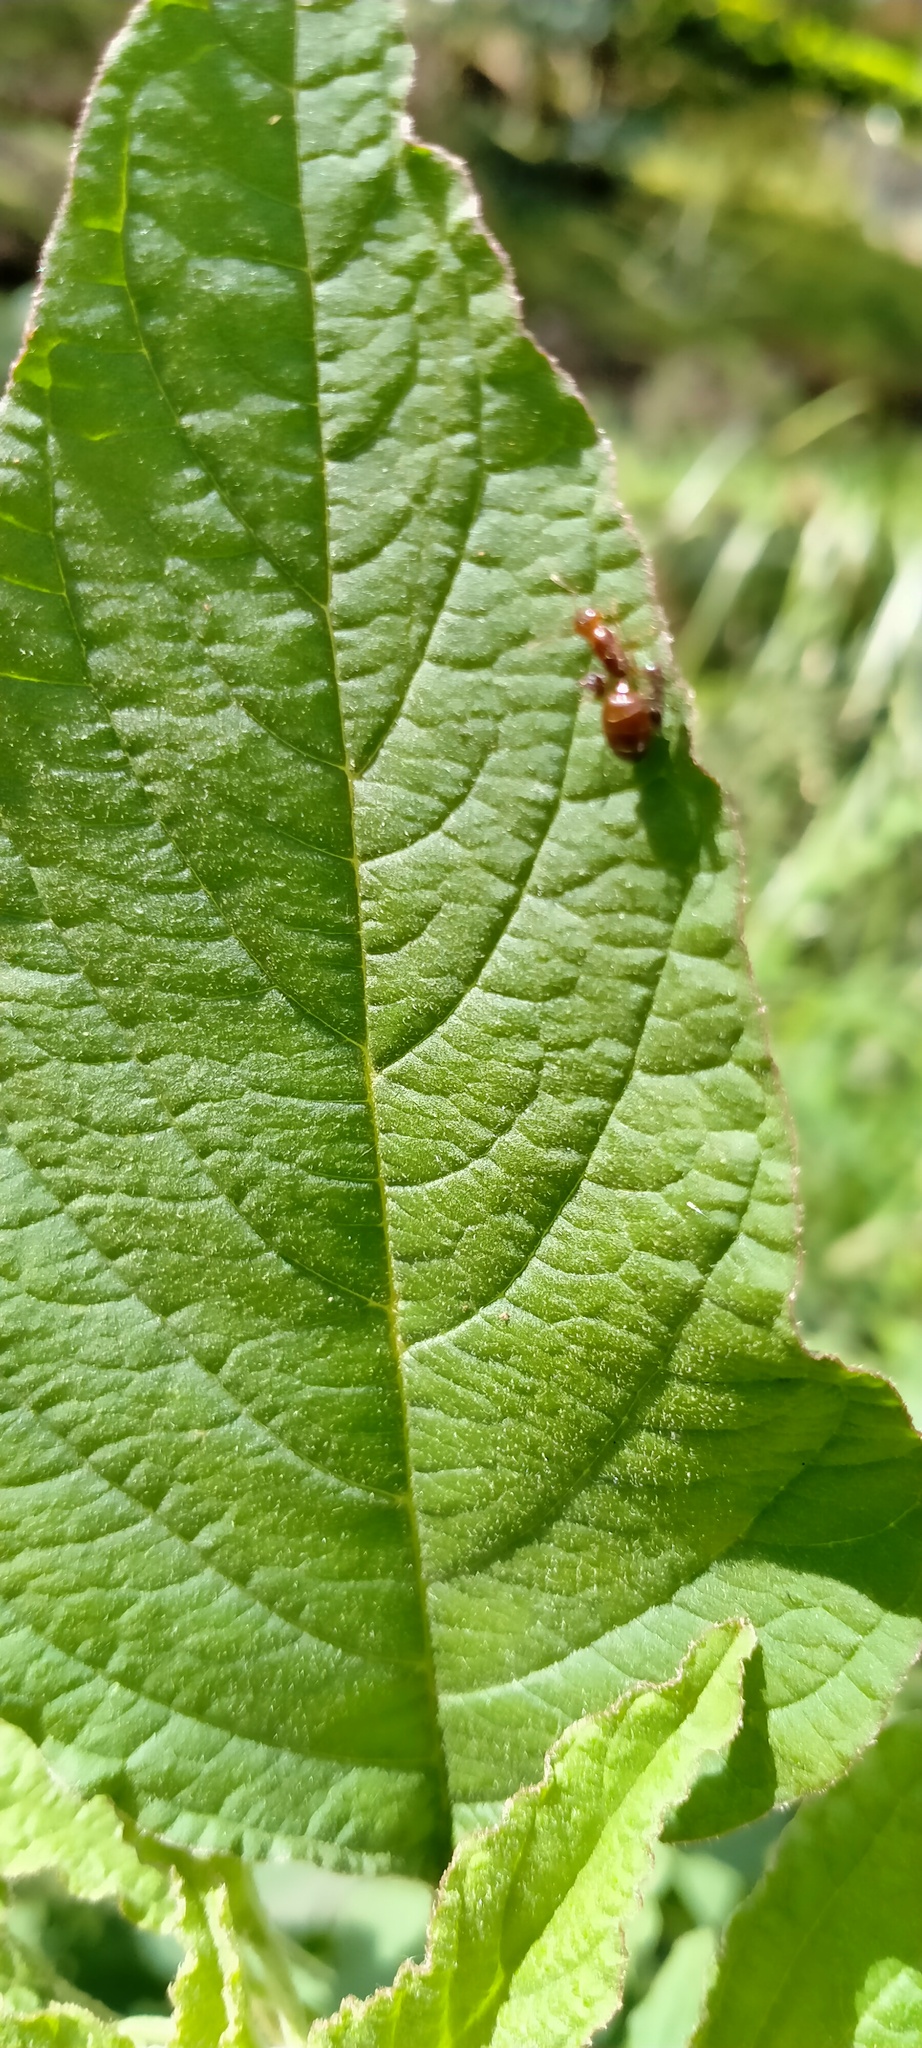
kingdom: Plantae
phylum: Tracheophyta
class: Magnoliopsida
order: Caryophyllales
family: Amaranthaceae
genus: Amaranthus
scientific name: Amaranthus viridis
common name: Slender amaranth
